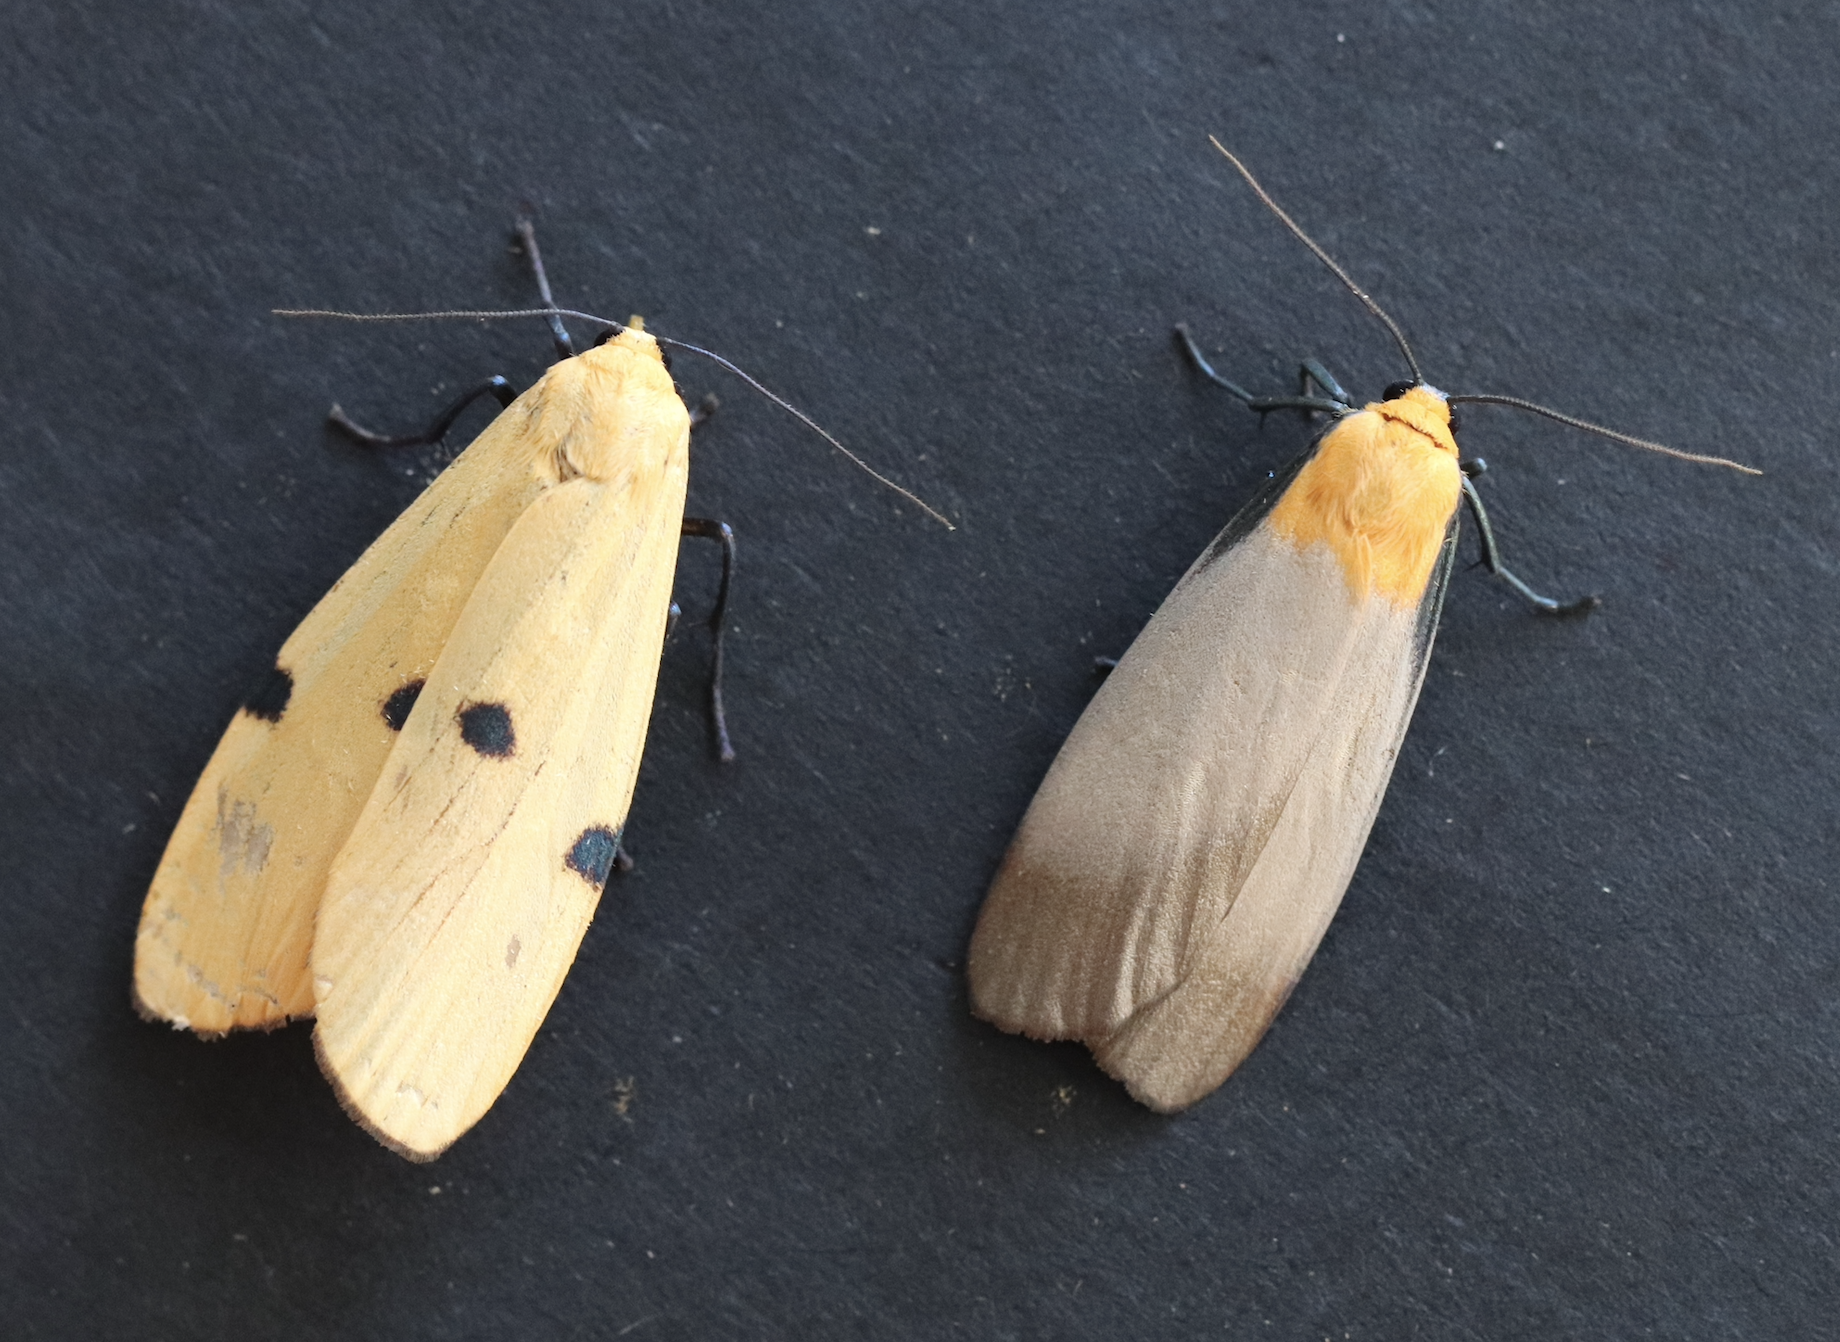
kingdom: Animalia
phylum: Arthropoda
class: Insecta
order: Lepidoptera
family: Erebidae
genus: Lithosia
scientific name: Lithosia quadra
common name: Four-spotted footman
